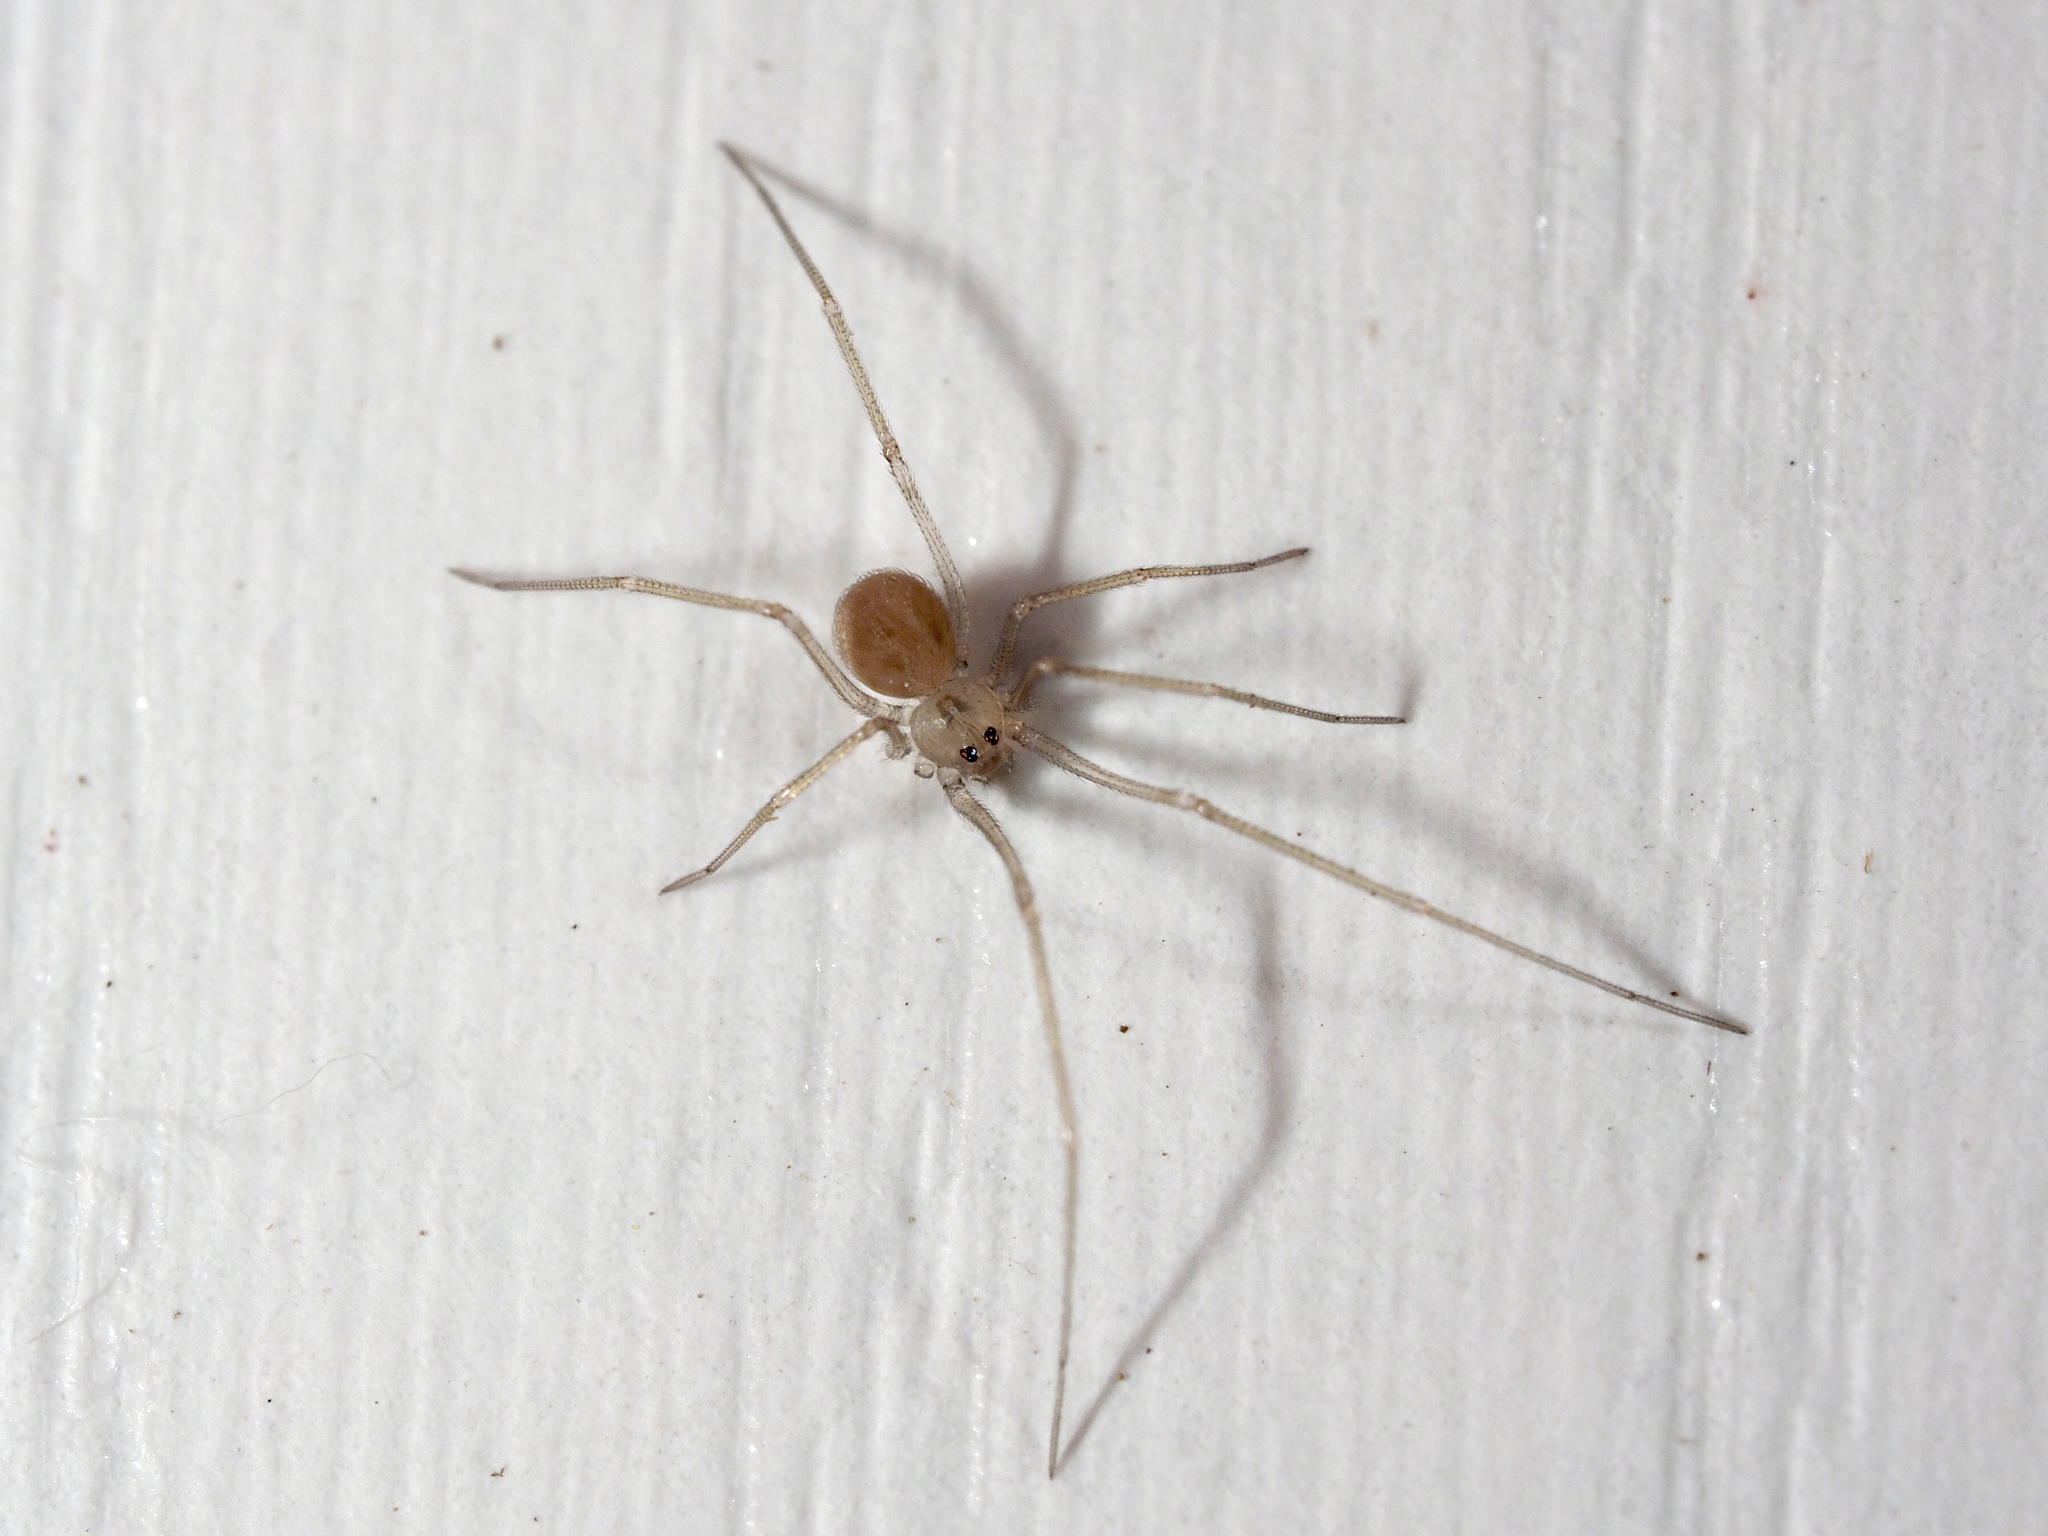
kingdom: Animalia
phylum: Arthropoda
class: Arachnida
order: Araneae
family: Pholcidae
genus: Spermophora
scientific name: Spermophora senoculata
